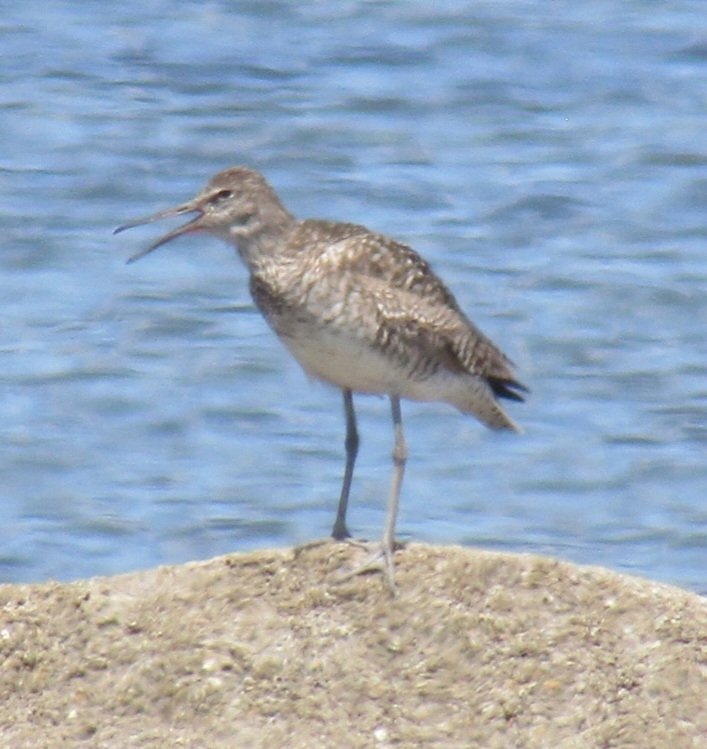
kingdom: Animalia
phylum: Chordata
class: Aves
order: Charadriiformes
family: Scolopacidae
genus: Tringa
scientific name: Tringa semipalmata
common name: Willet
